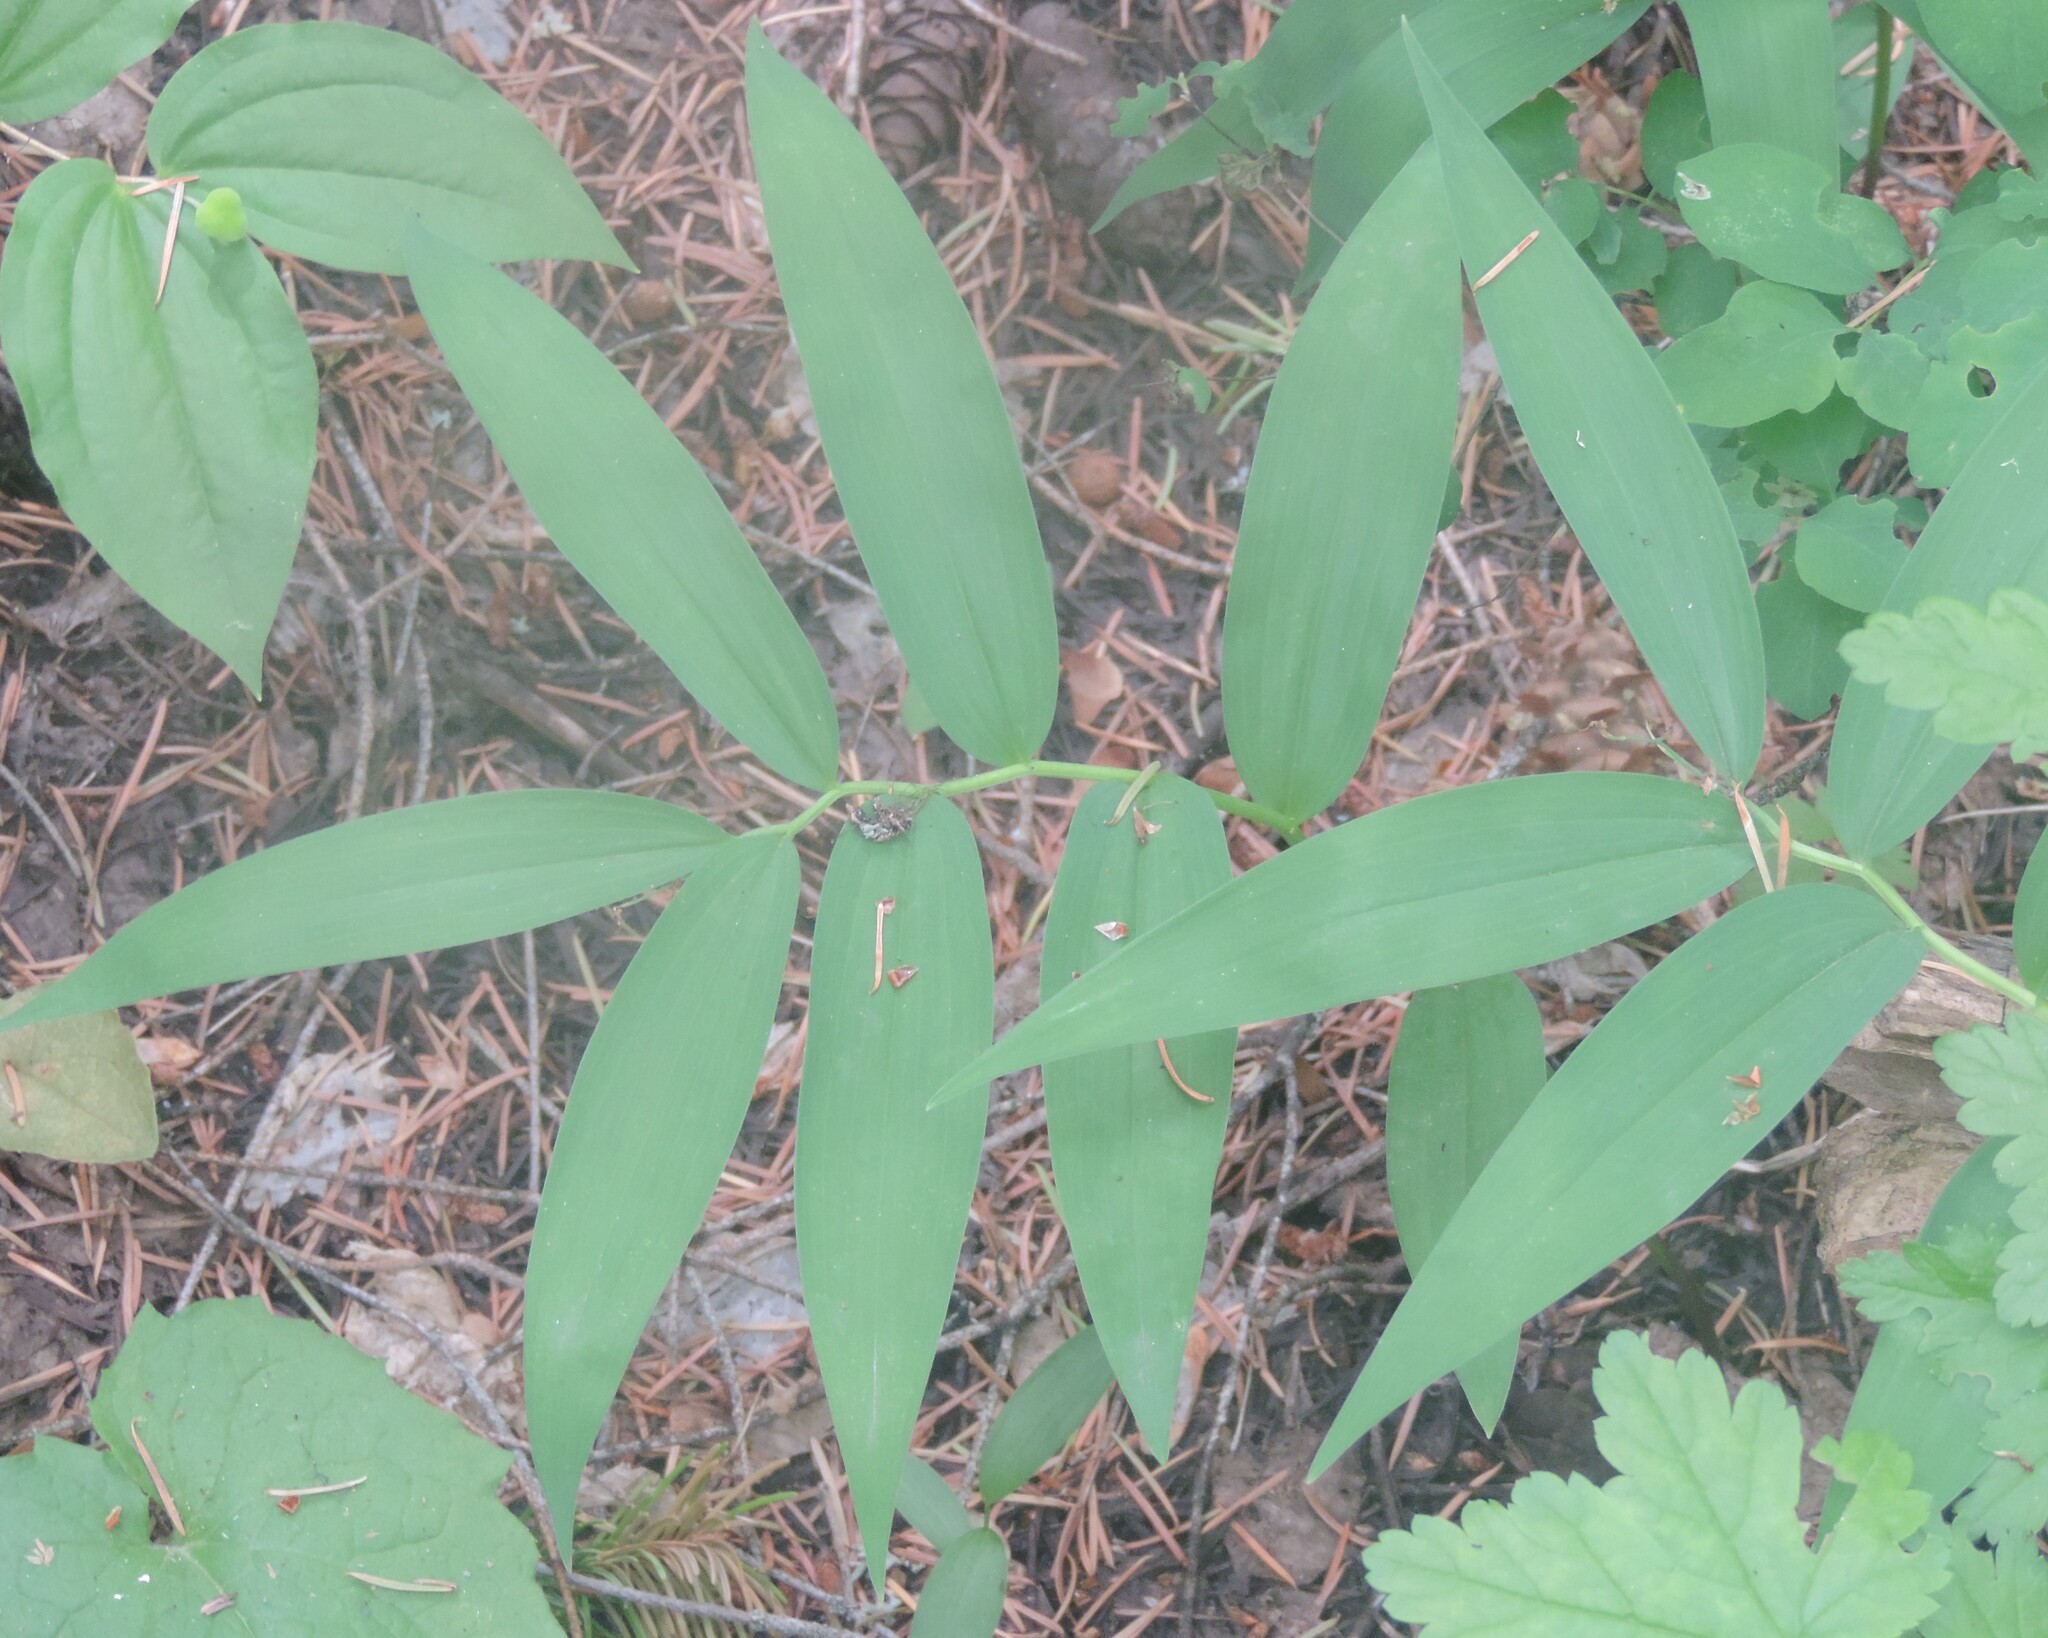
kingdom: Plantae
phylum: Tracheophyta
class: Liliopsida
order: Asparagales
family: Asparagaceae
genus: Maianthemum
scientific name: Maianthemum stellatum
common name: Little false solomon's seal
